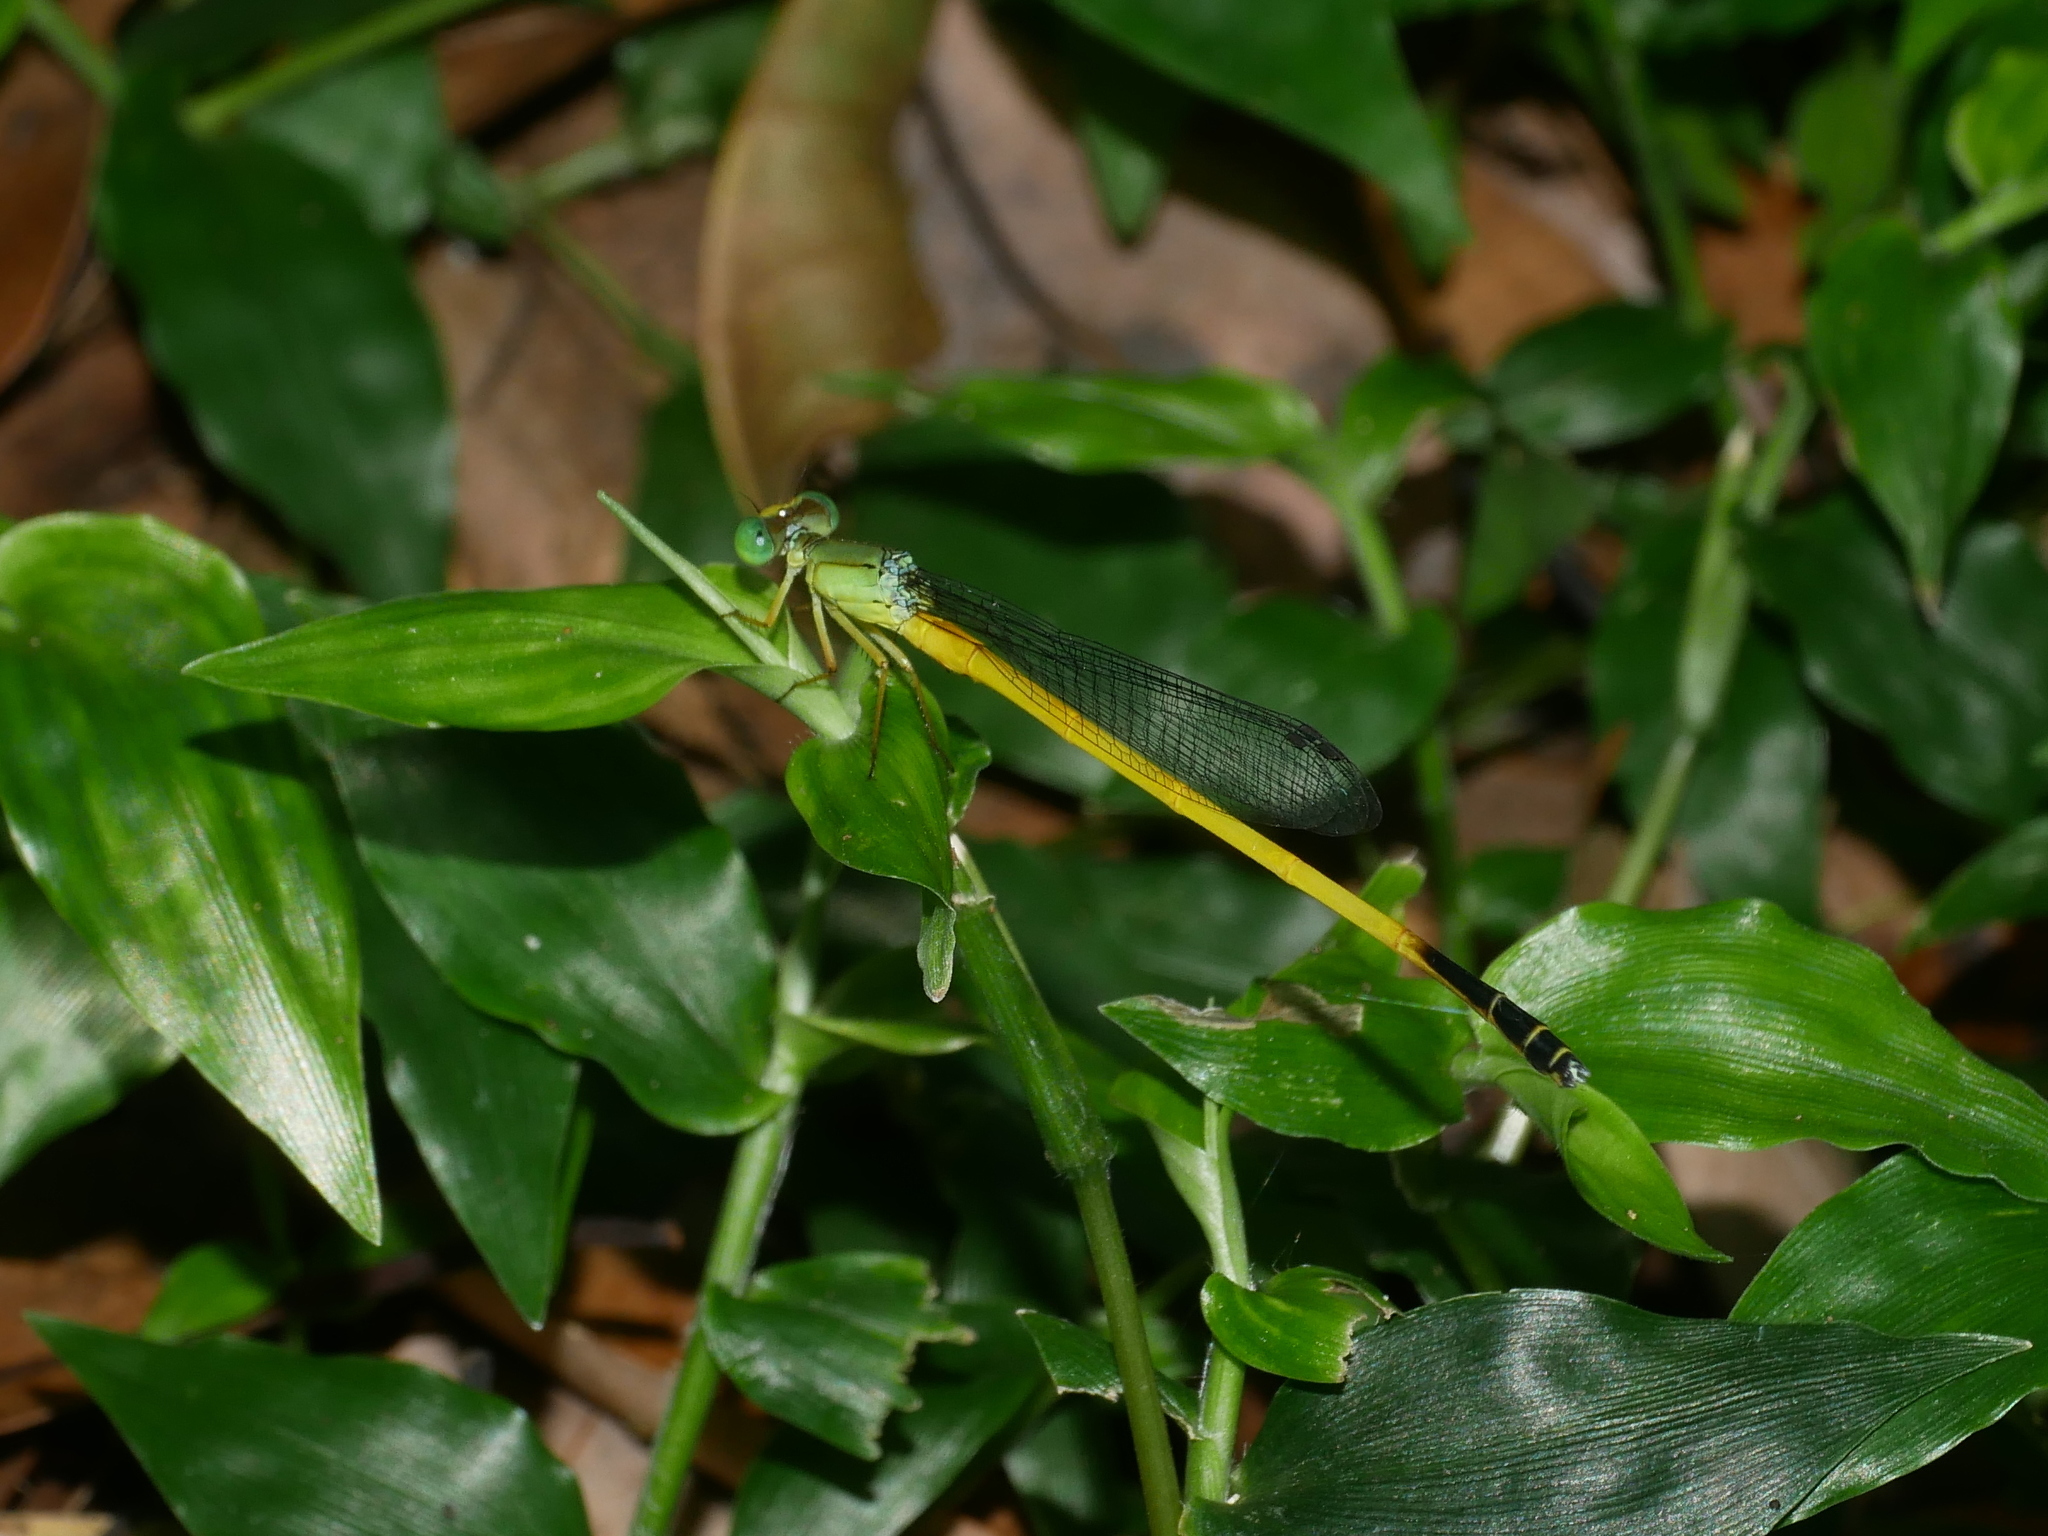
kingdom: Animalia
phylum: Arthropoda
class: Insecta
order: Odonata
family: Coenagrionidae
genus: Ceriagrion
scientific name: Ceriagrion fallax
